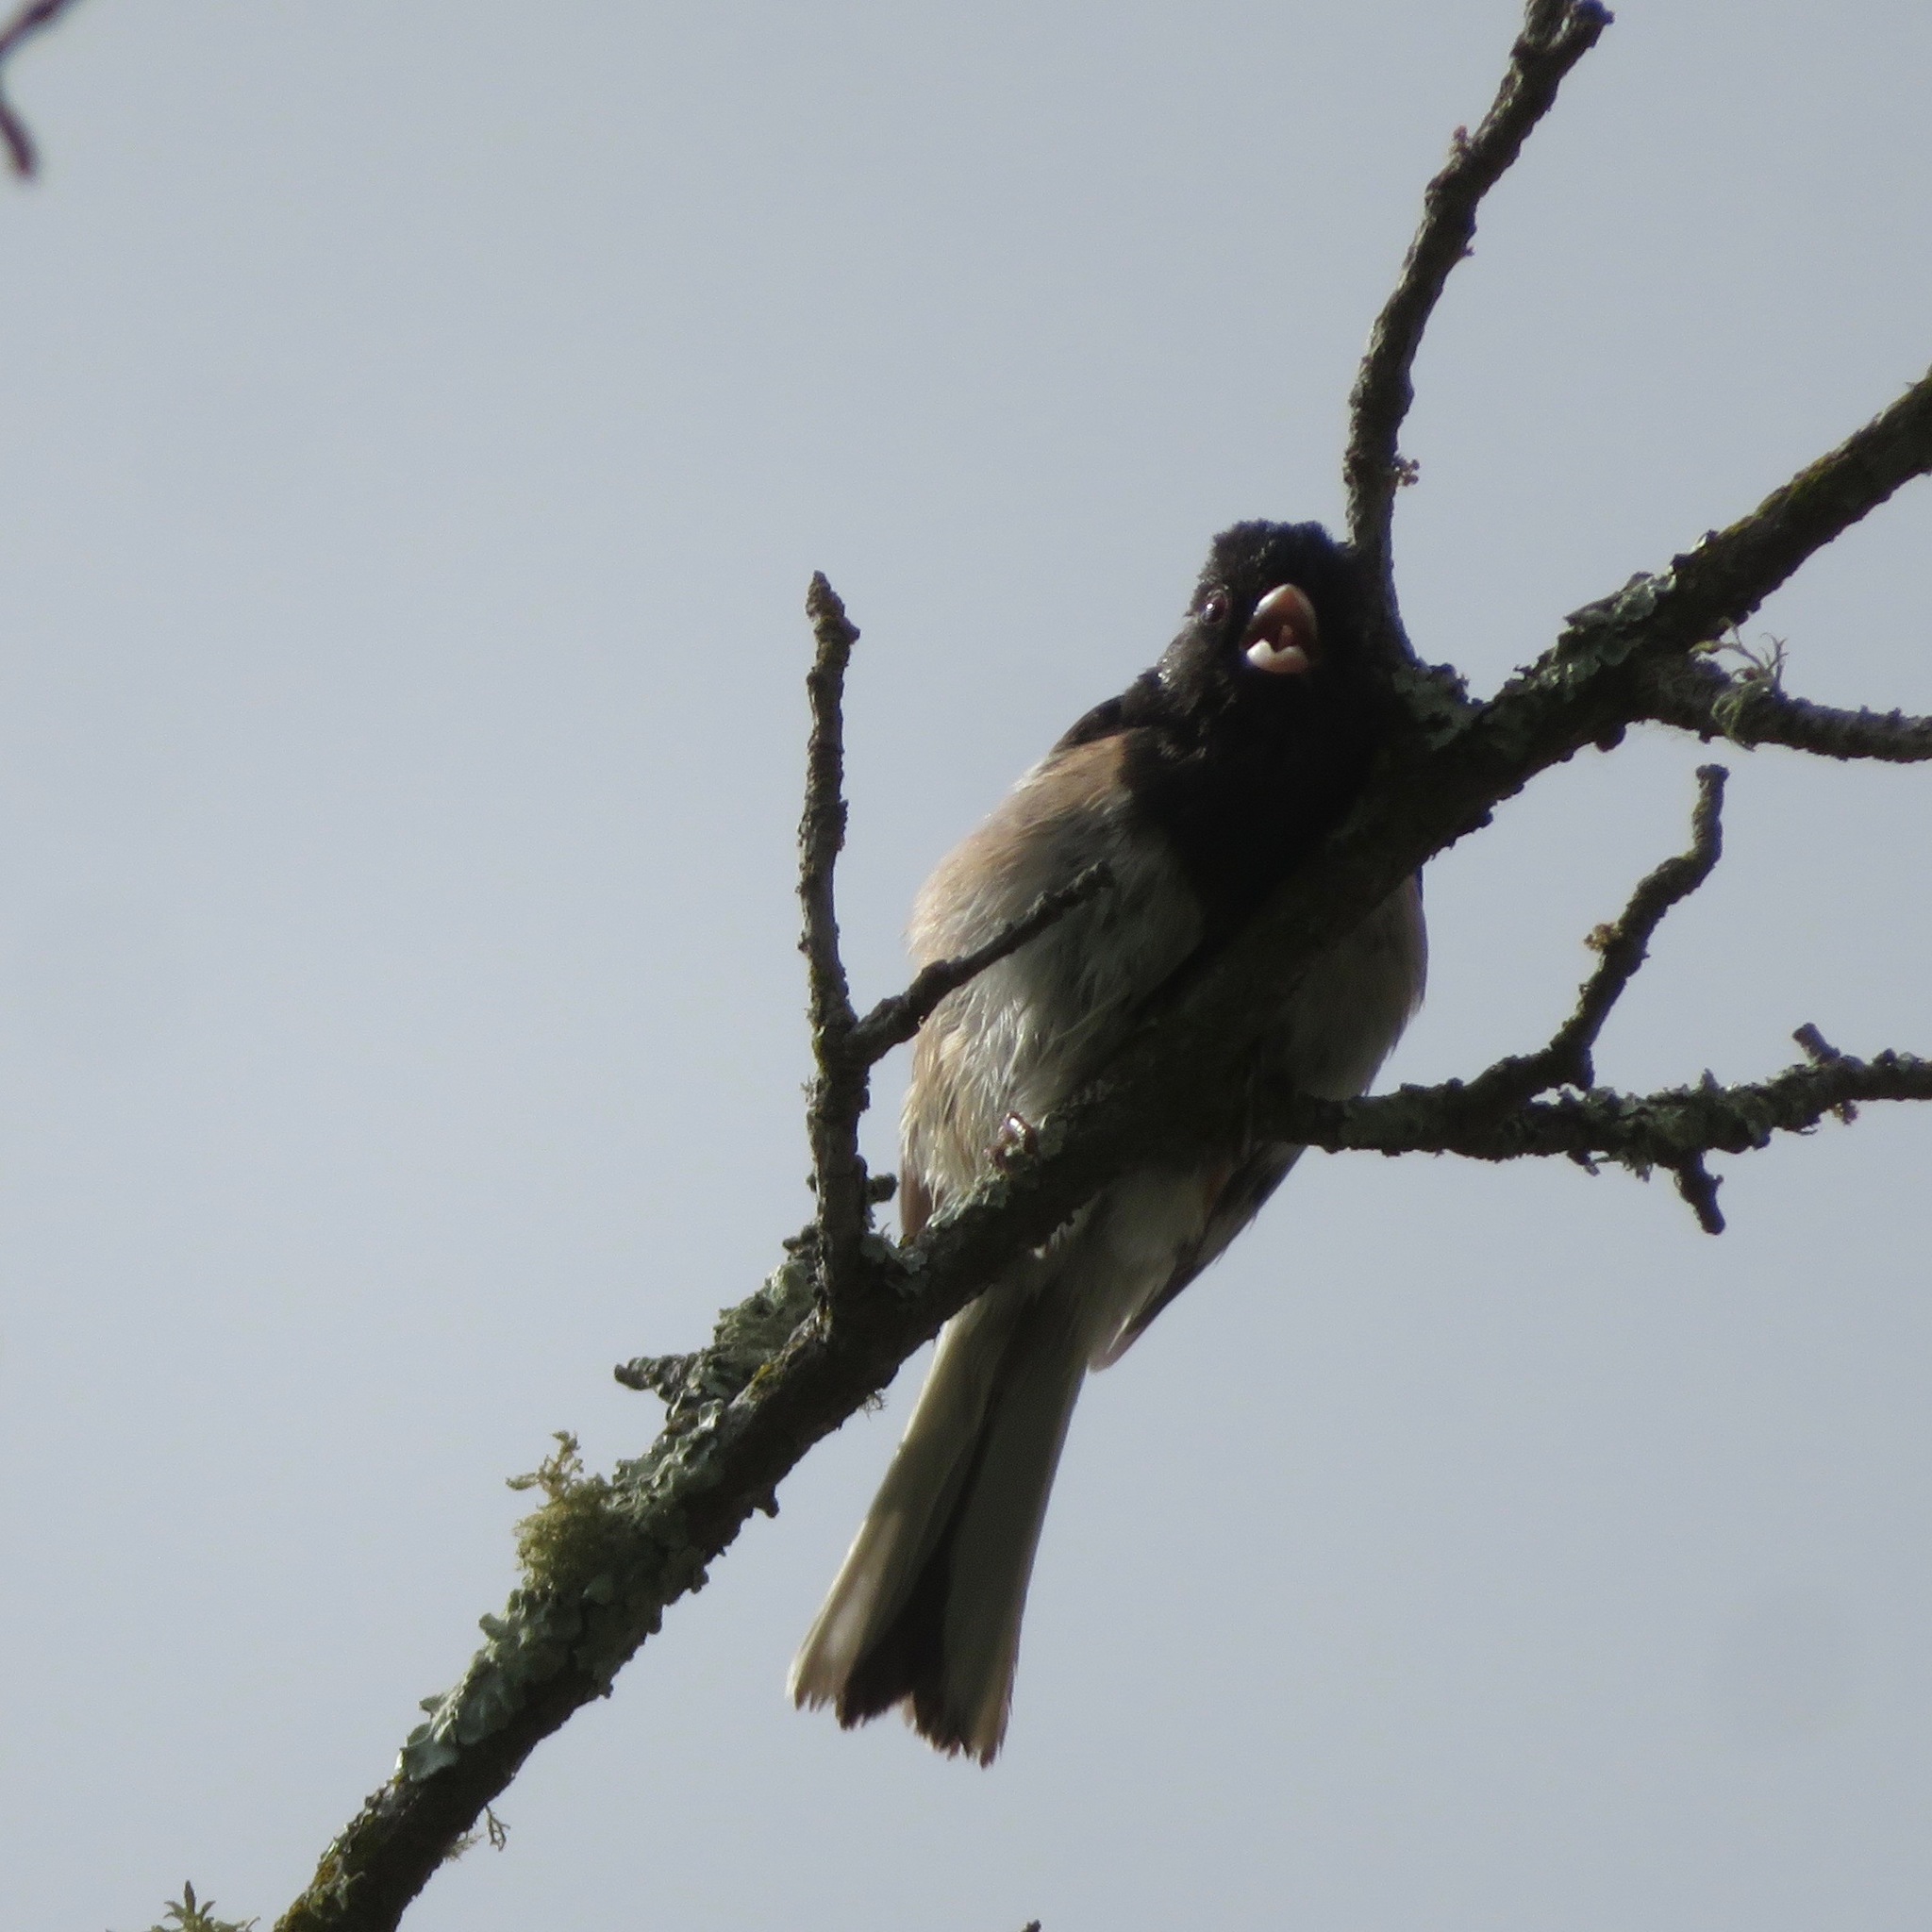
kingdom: Animalia
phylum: Chordata
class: Aves
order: Passeriformes
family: Passerellidae
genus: Junco
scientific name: Junco hyemalis
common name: Dark-eyed junco
